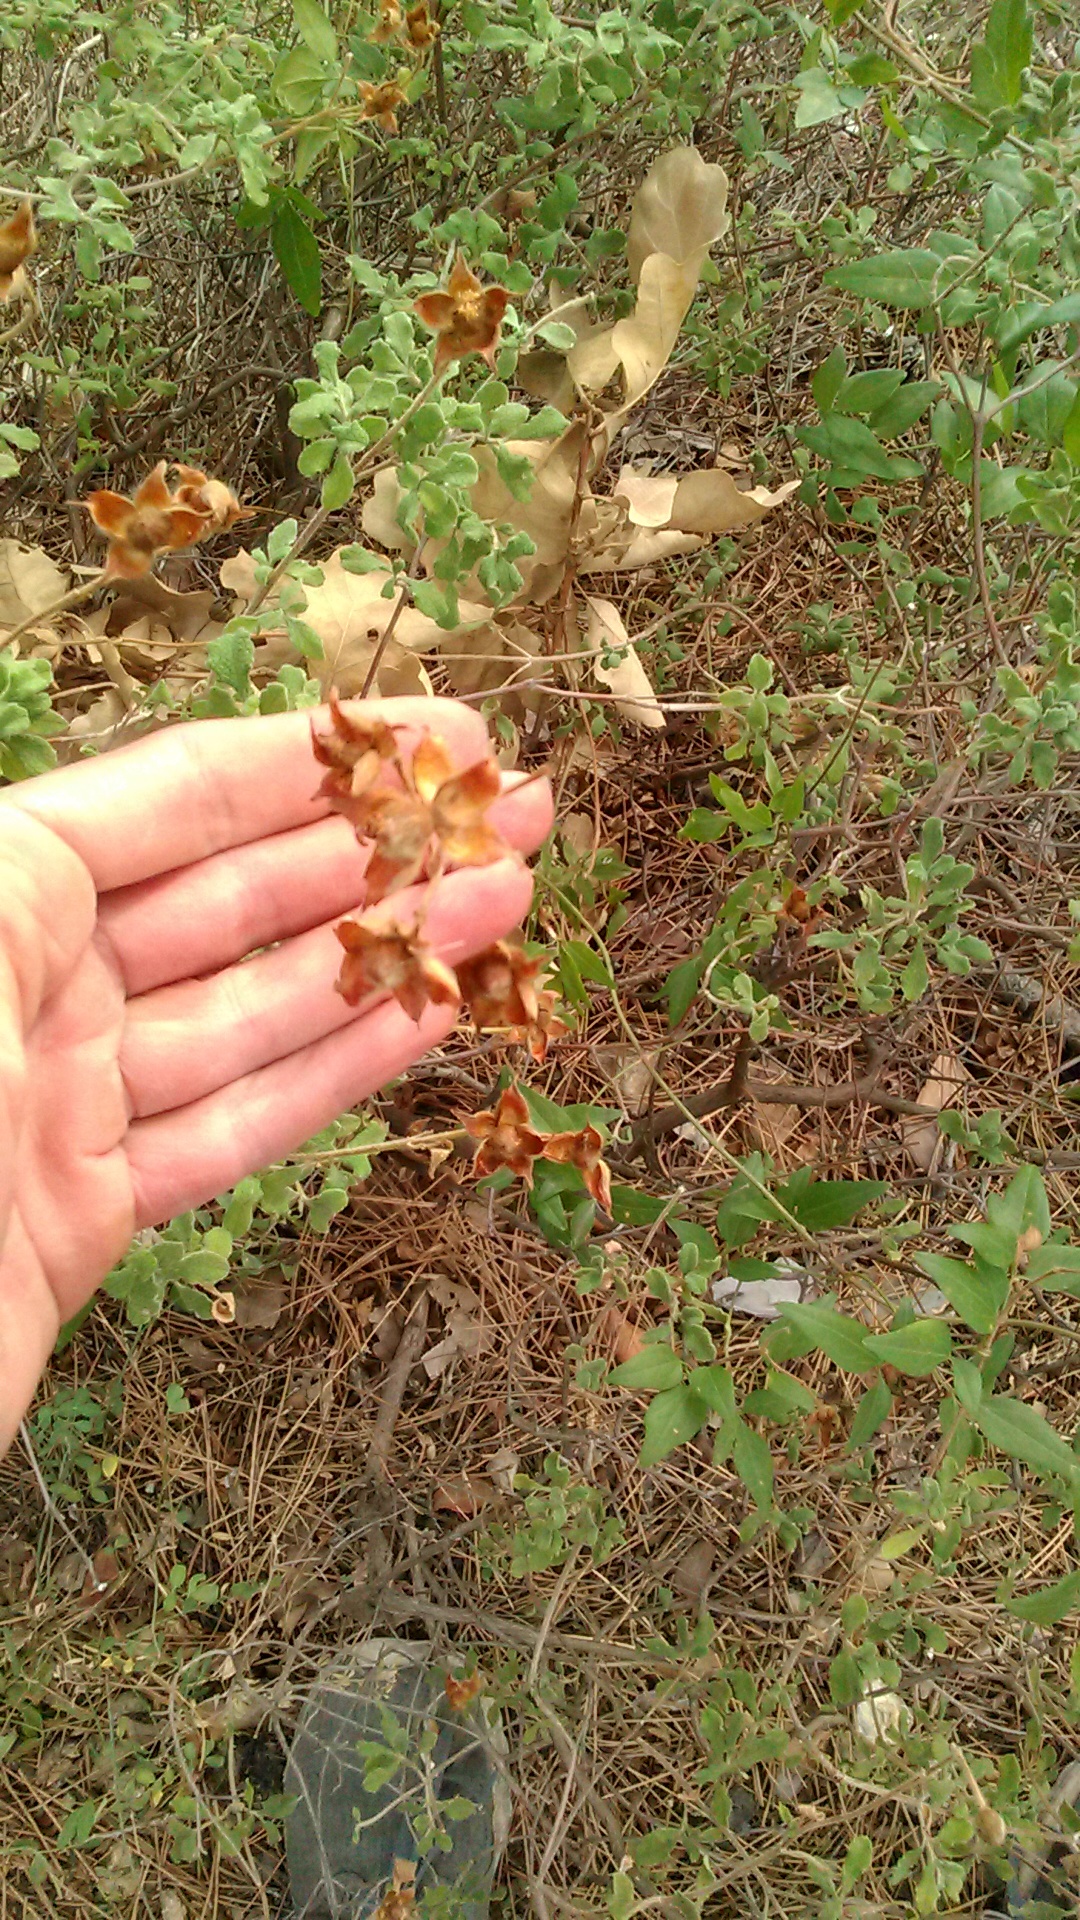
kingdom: Plantae
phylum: Tracheophyta
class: Magnoliopsida
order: Malvales
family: Cistaceae
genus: Cistus
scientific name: Cistus tauricus
